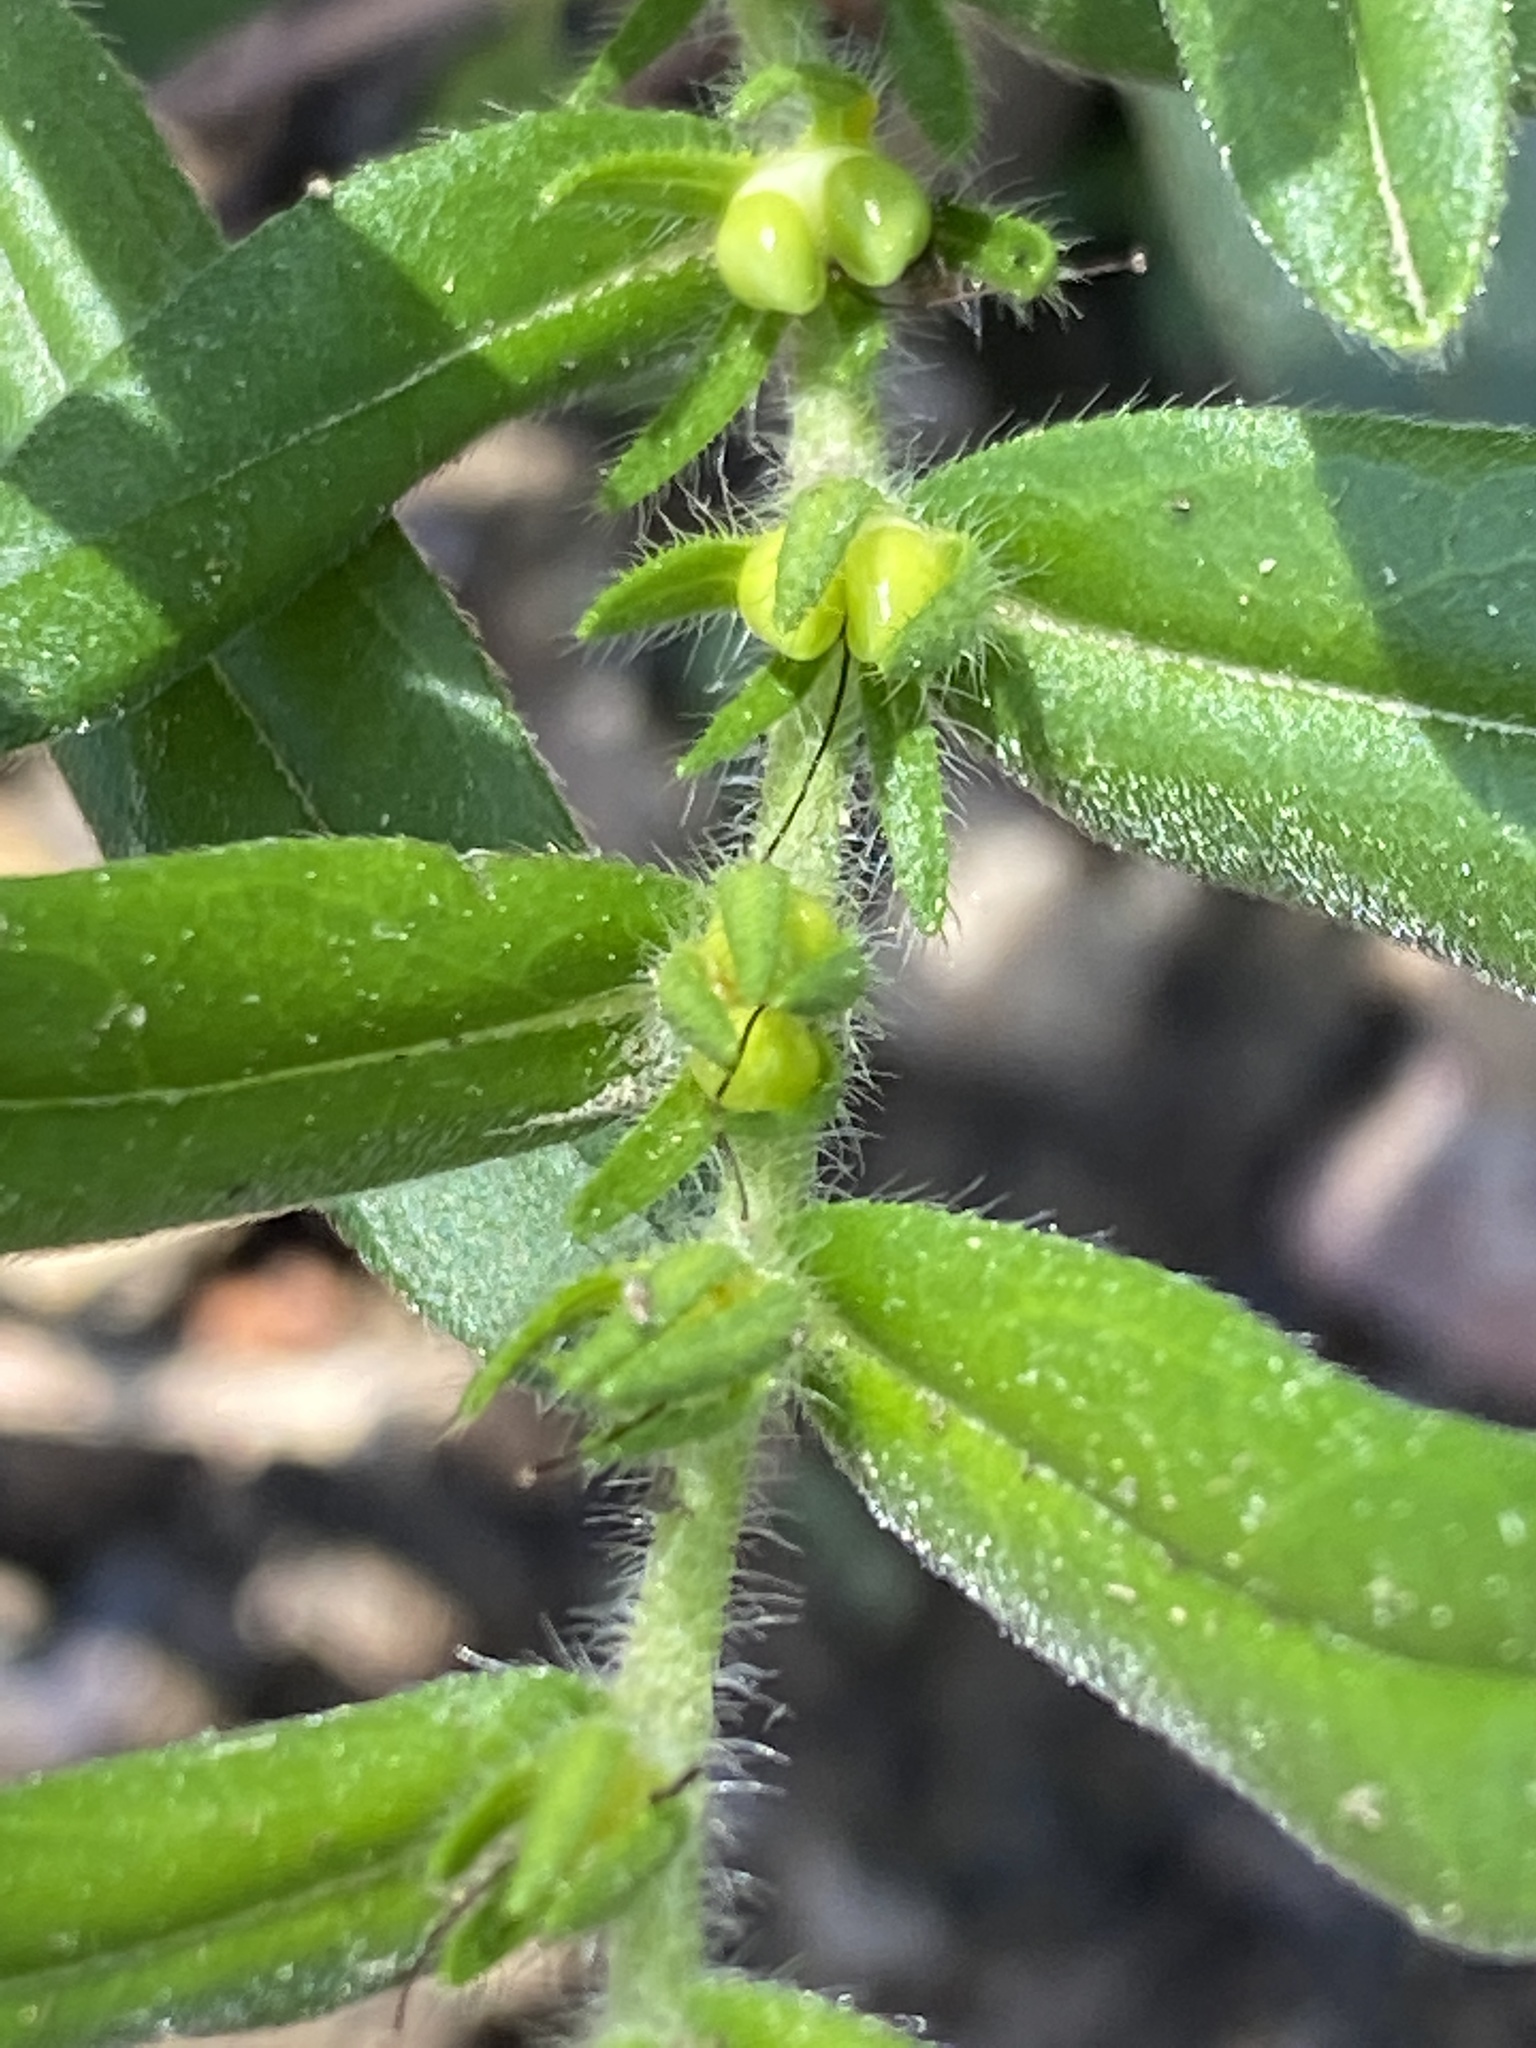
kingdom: Plantae
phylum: Tracheophyta
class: Magnoliopsida
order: Boraginales
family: Boraginaceae
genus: Lithospermum
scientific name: Lithospermum canescens
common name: Hoary puccoon
